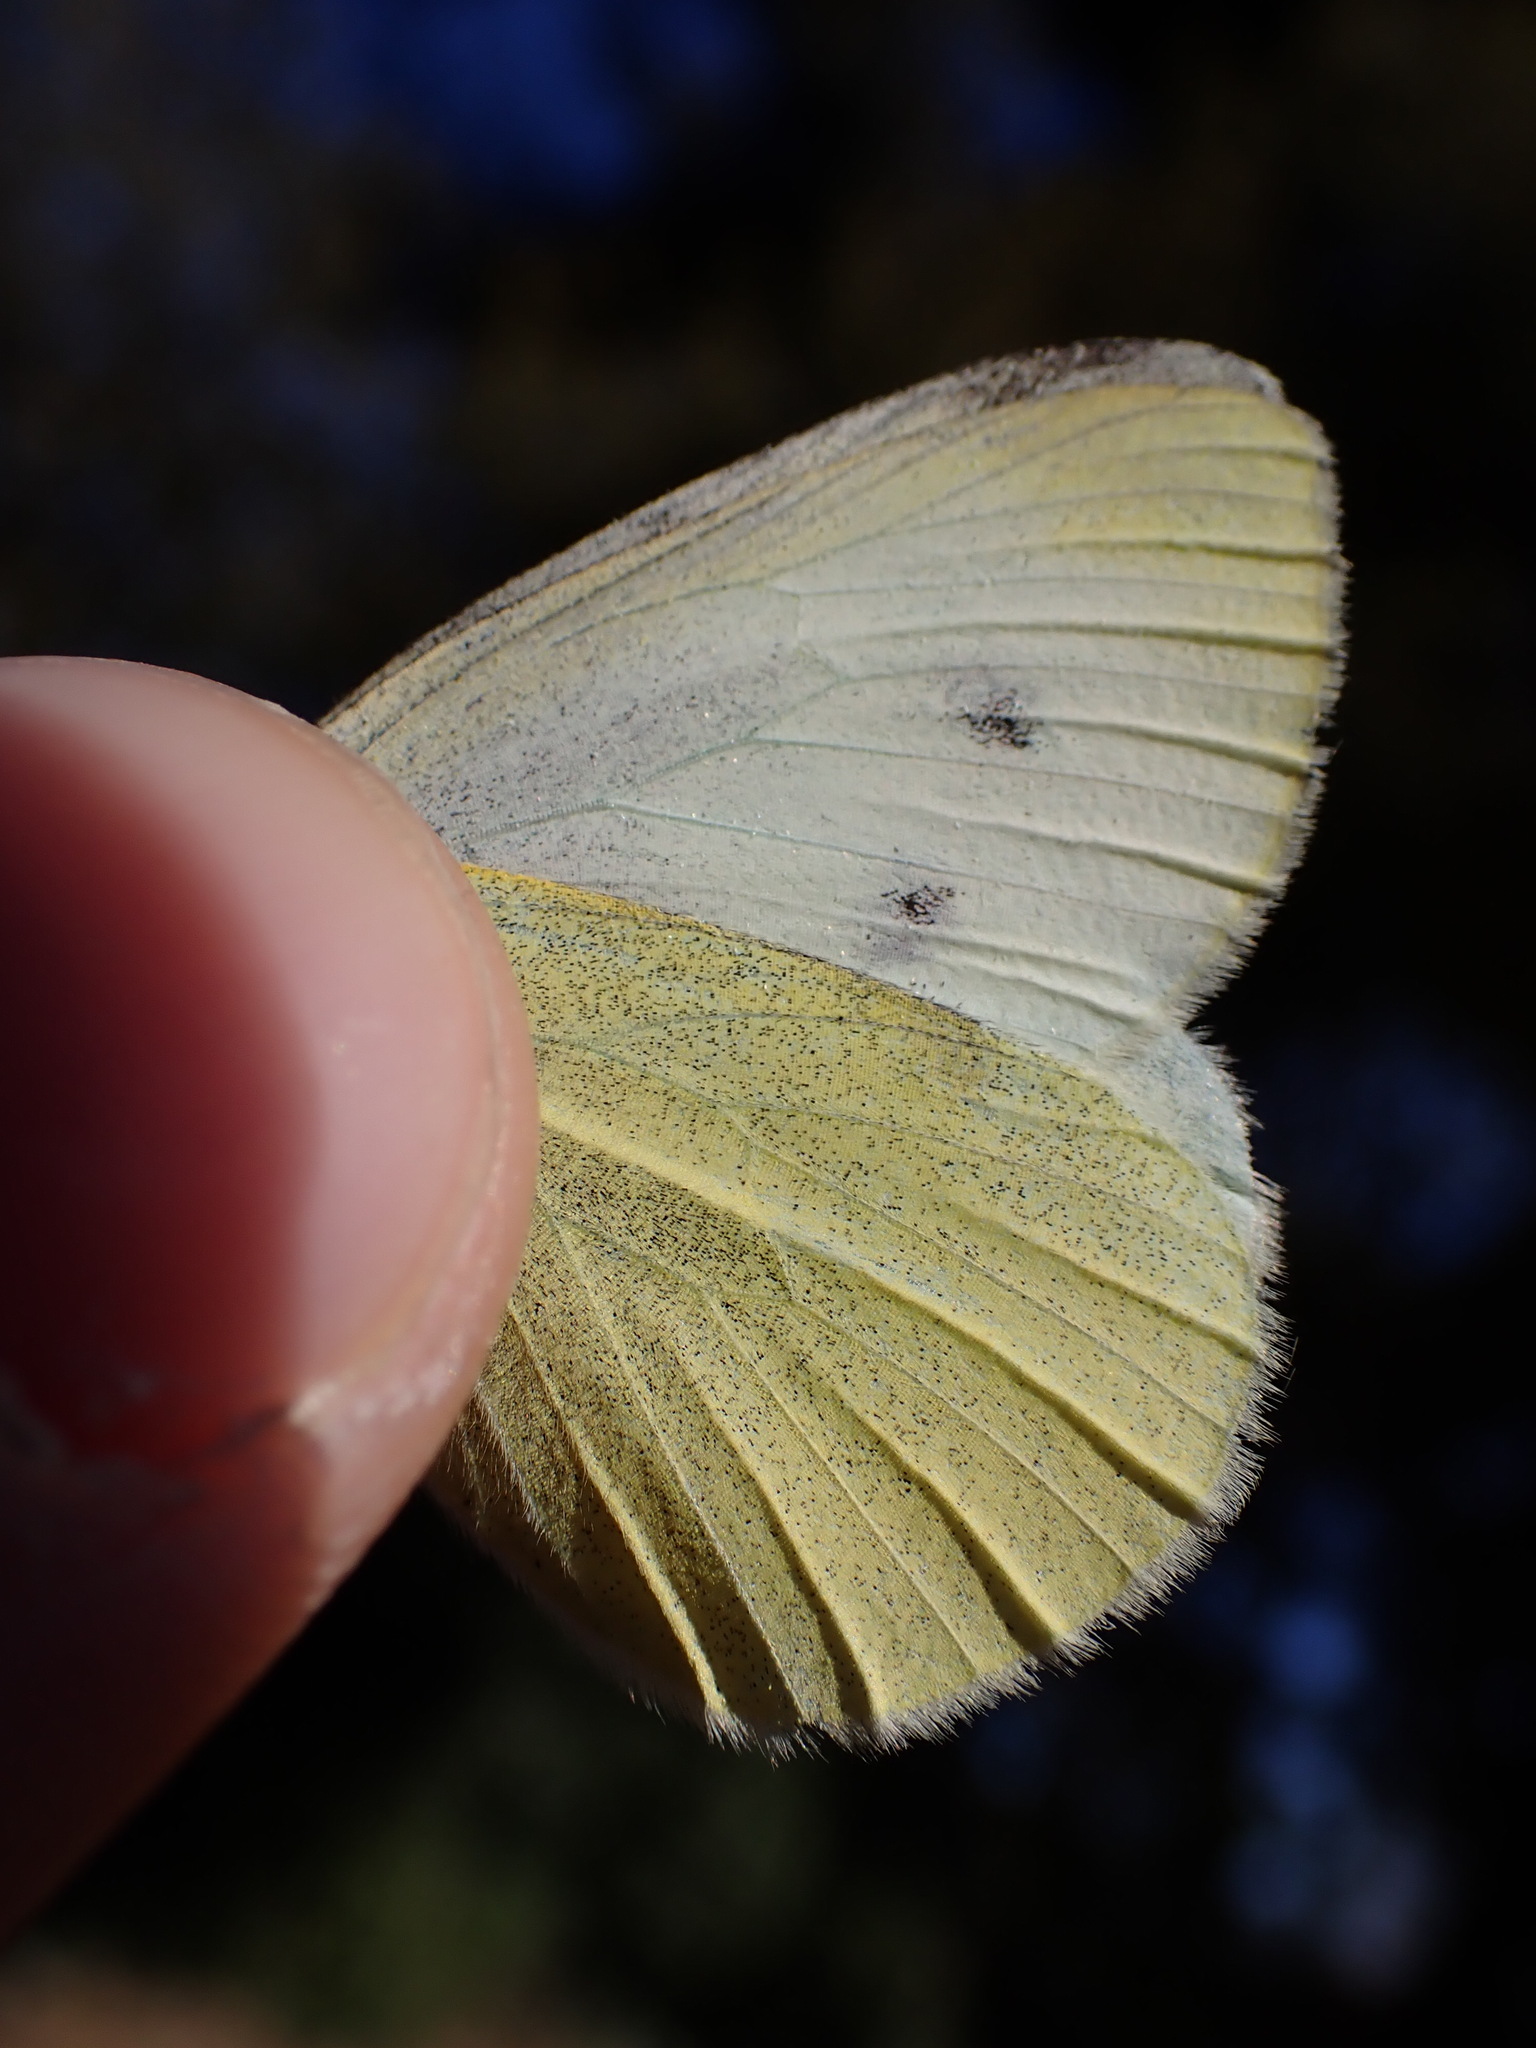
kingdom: Animalia
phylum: Arthropoda
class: Insecta
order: Lepidoptera
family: Pieridae
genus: Pieris
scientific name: Pieris rapae
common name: Small white
